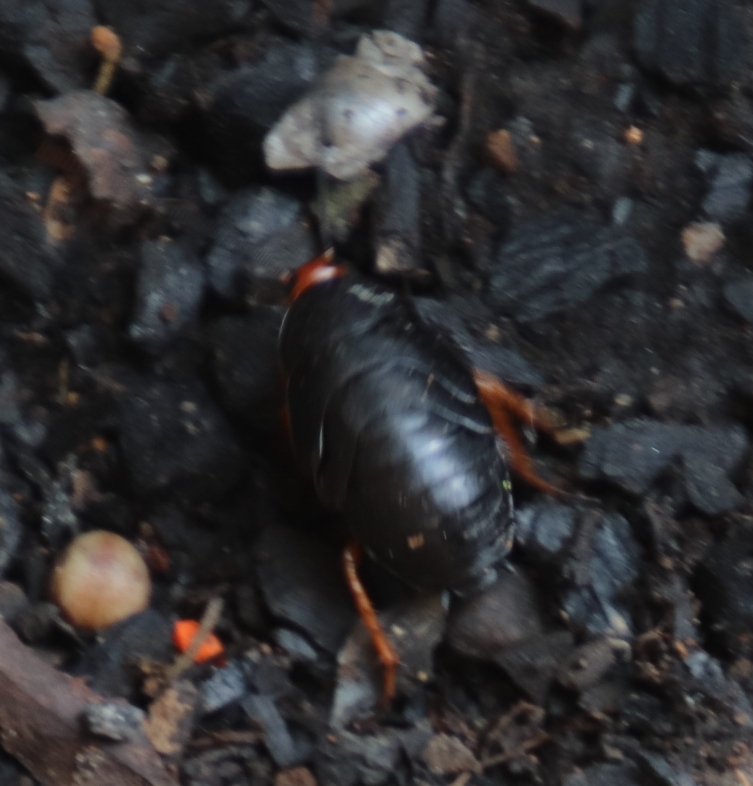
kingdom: Animalia
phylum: Arthropoda
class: Insecta
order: Blattodea
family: Blattidae
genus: Deropeltis
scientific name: Deropeltis erythrocephala
